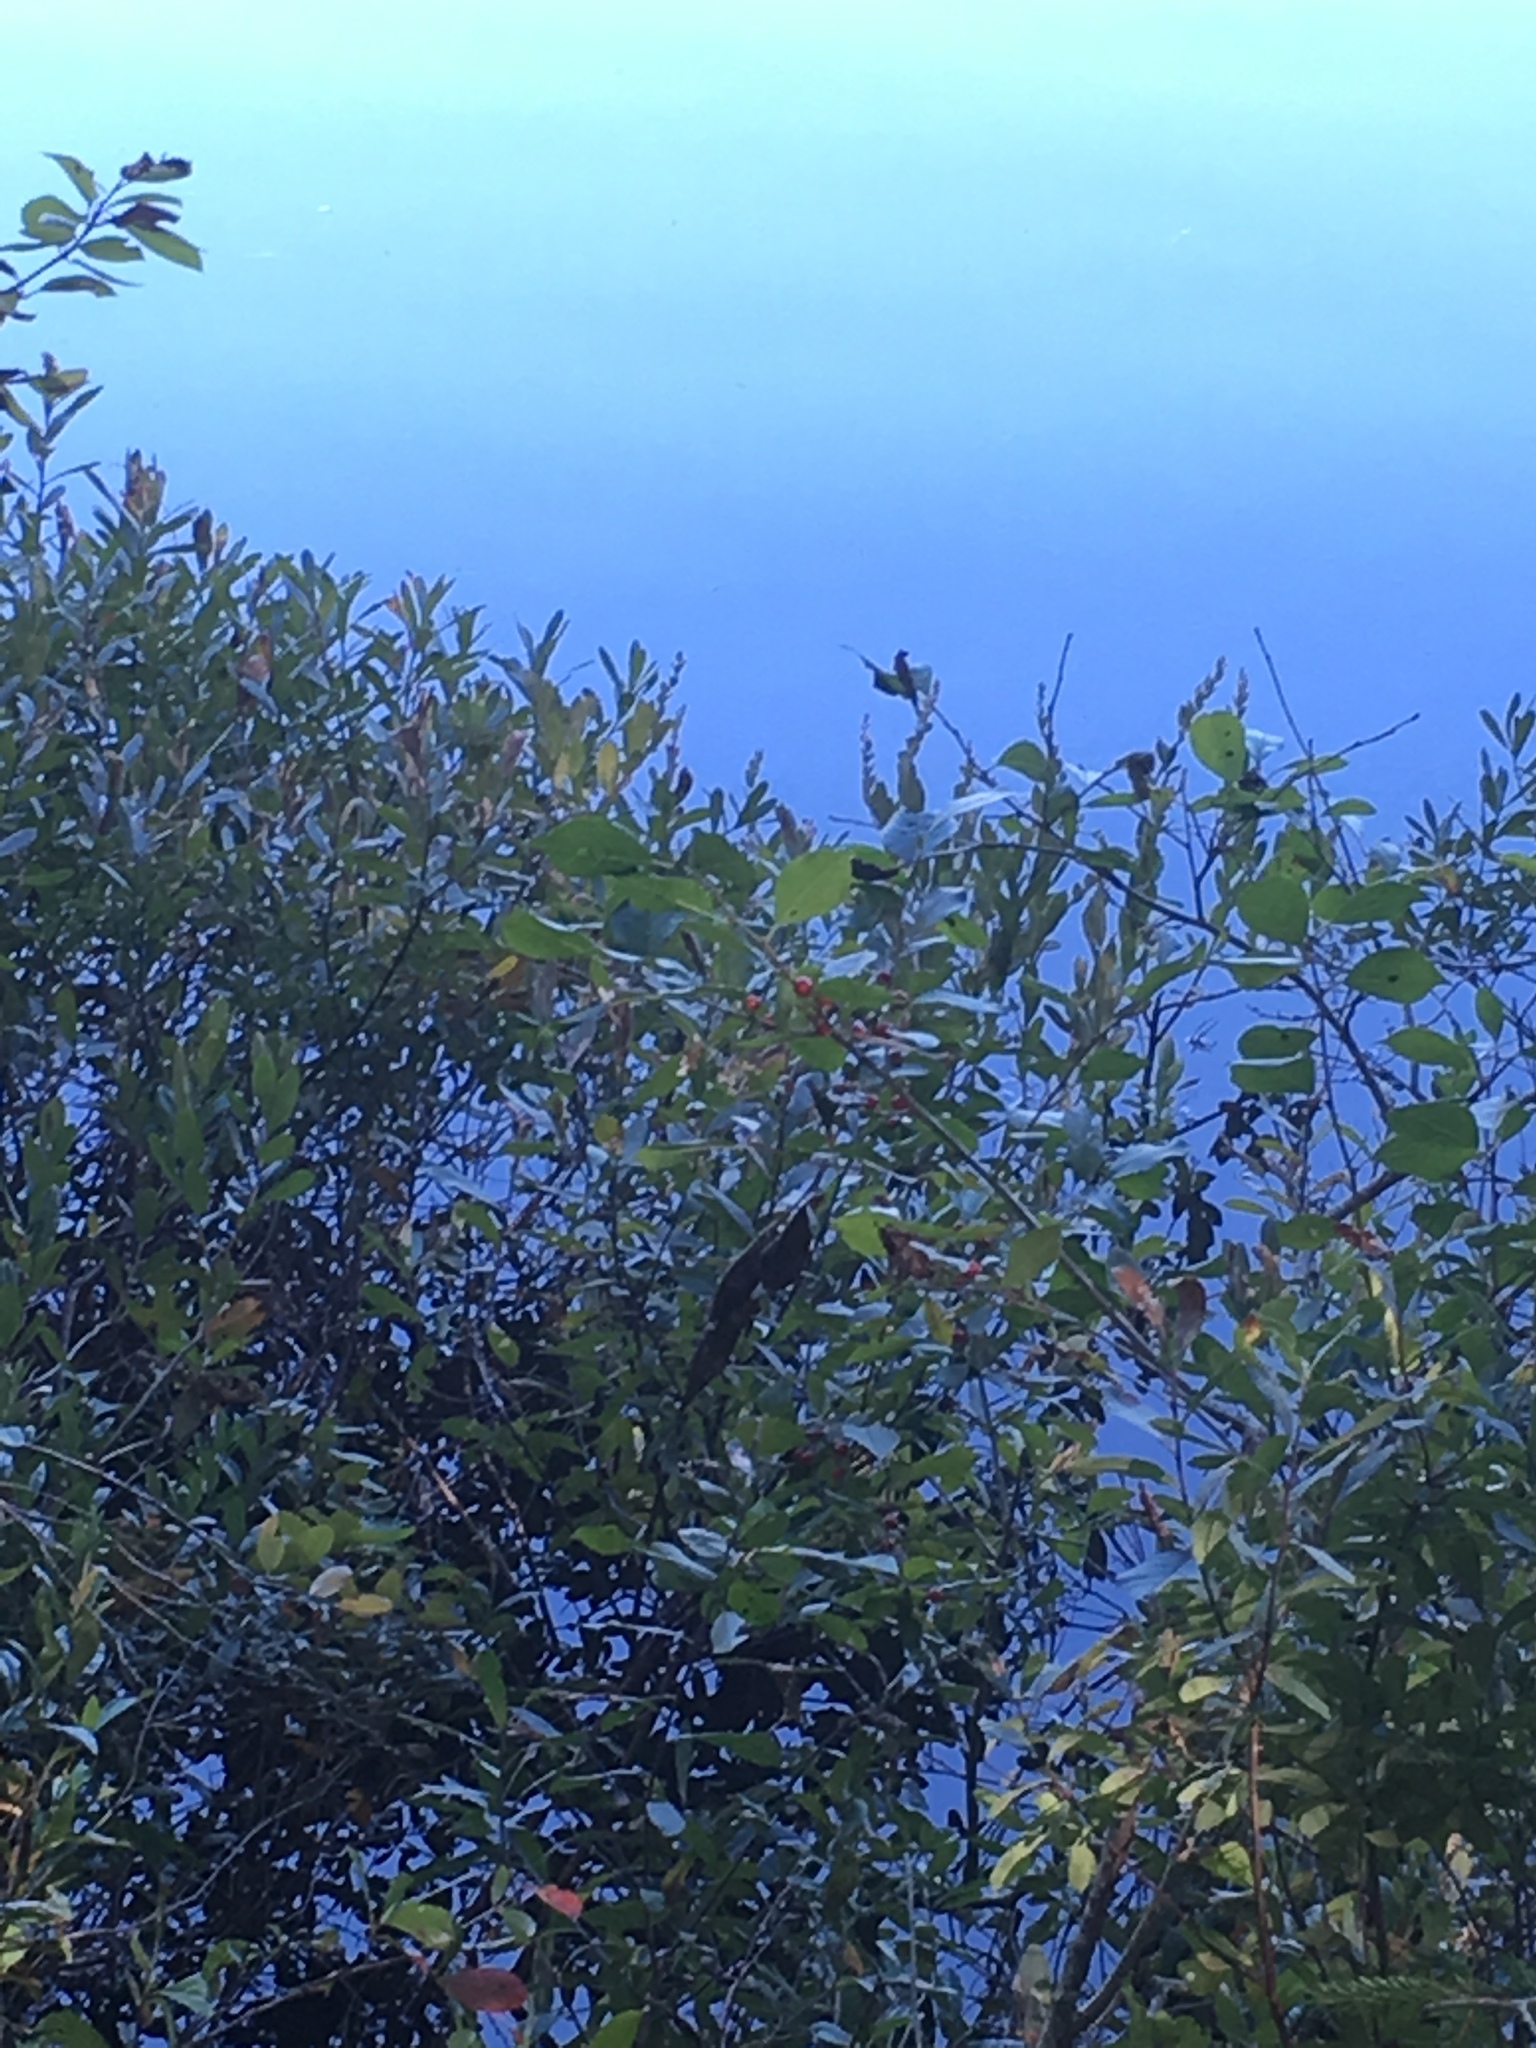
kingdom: Plantae
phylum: Tracheophyta
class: Magnoliopsida
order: Ericales
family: Ericaceae
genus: Chamaedaphne
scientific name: Chamaedaphne calyculata
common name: Leatherleaf
